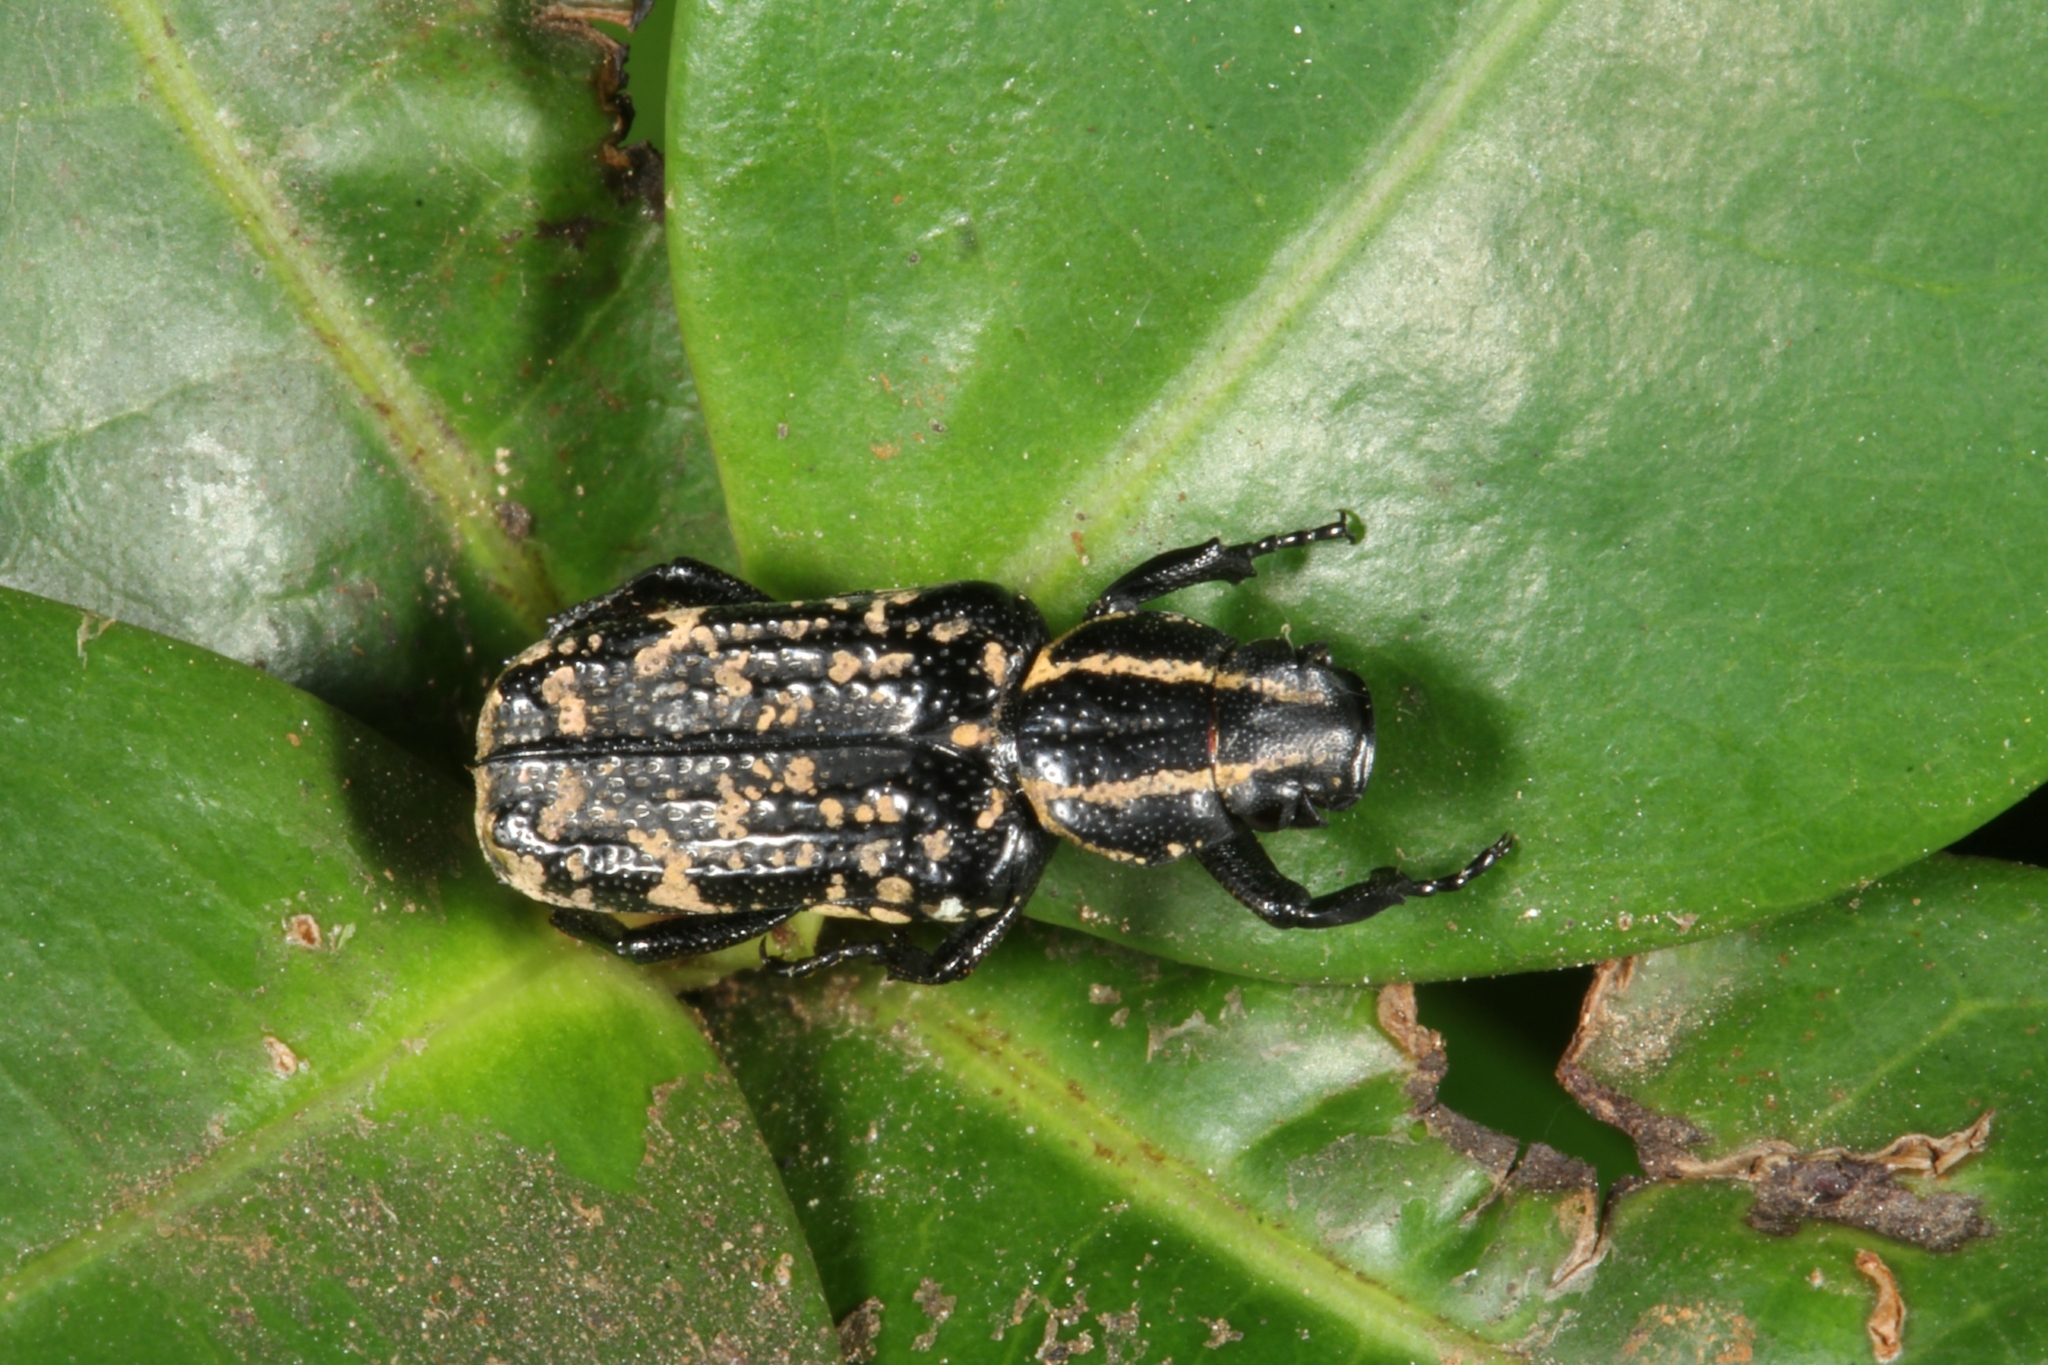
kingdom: Animalia
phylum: Arthropoda
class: Insecta
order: Coleoptera
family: Scarabaeidae
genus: Genuchinus
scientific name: Genuchinus nevermanni
